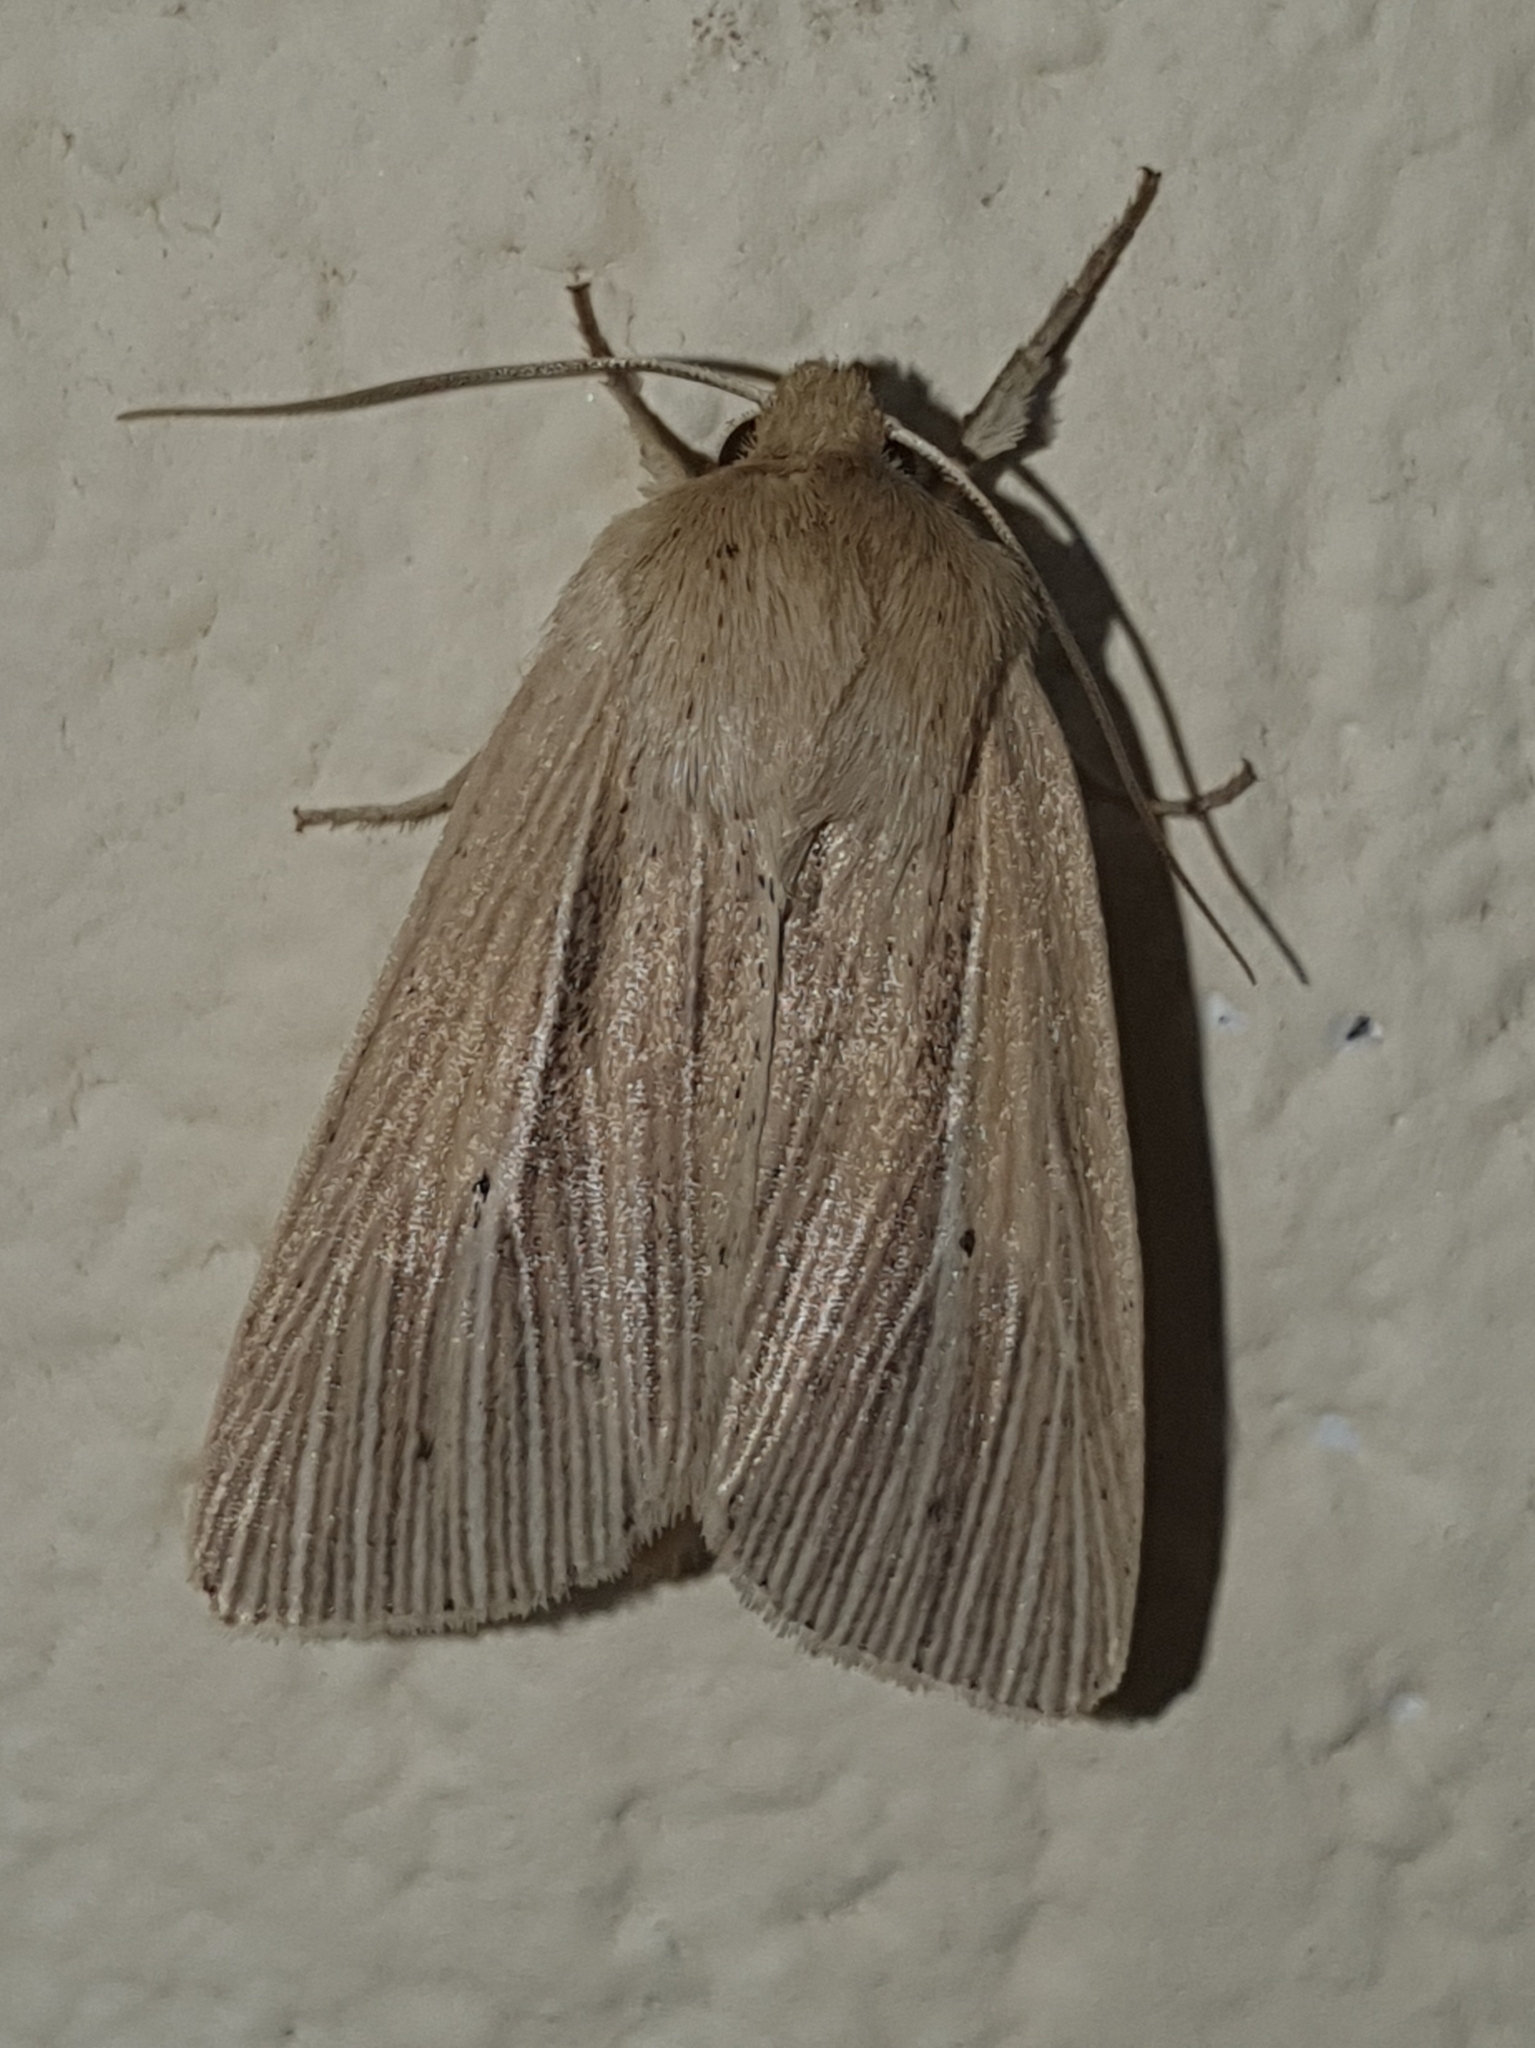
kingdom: Animalia
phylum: Arthropoda
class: Insecta
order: Lepidoptera
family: Noctuidae
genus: Mythimna
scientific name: Mythimna impura
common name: Smoky wainscot
